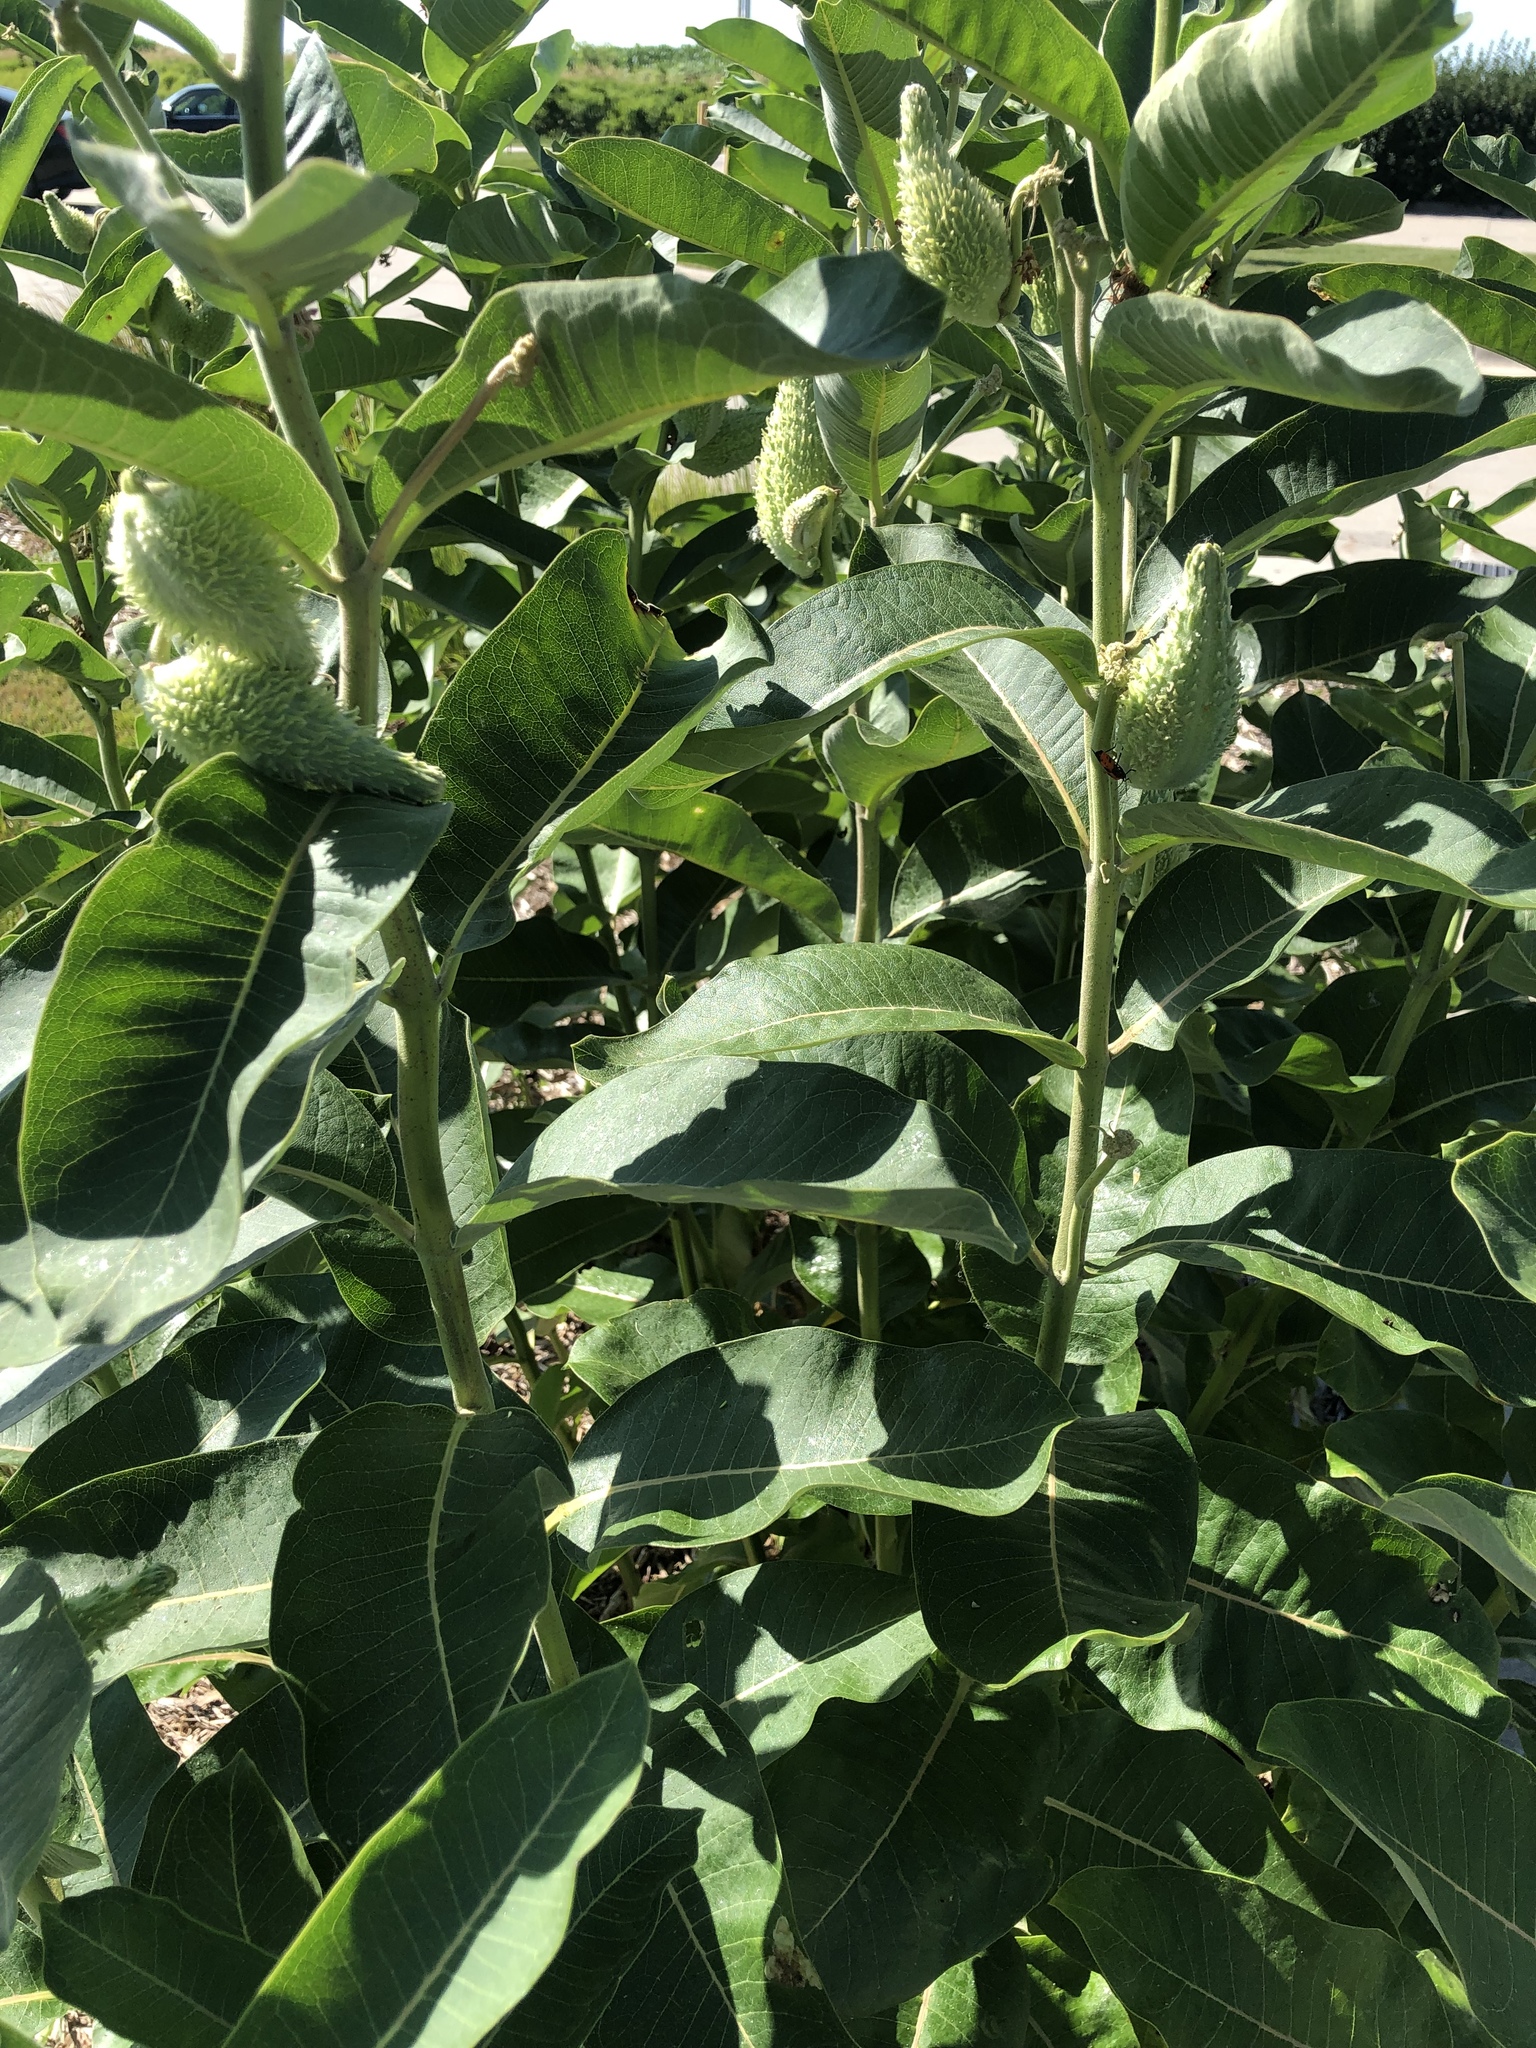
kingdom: Plantae
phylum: Tracheophyta
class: Magnoliopsida
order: Gentianales
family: Apocynaceae
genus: Asclepias
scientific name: Asclepias syriaca
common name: Common milkweed
